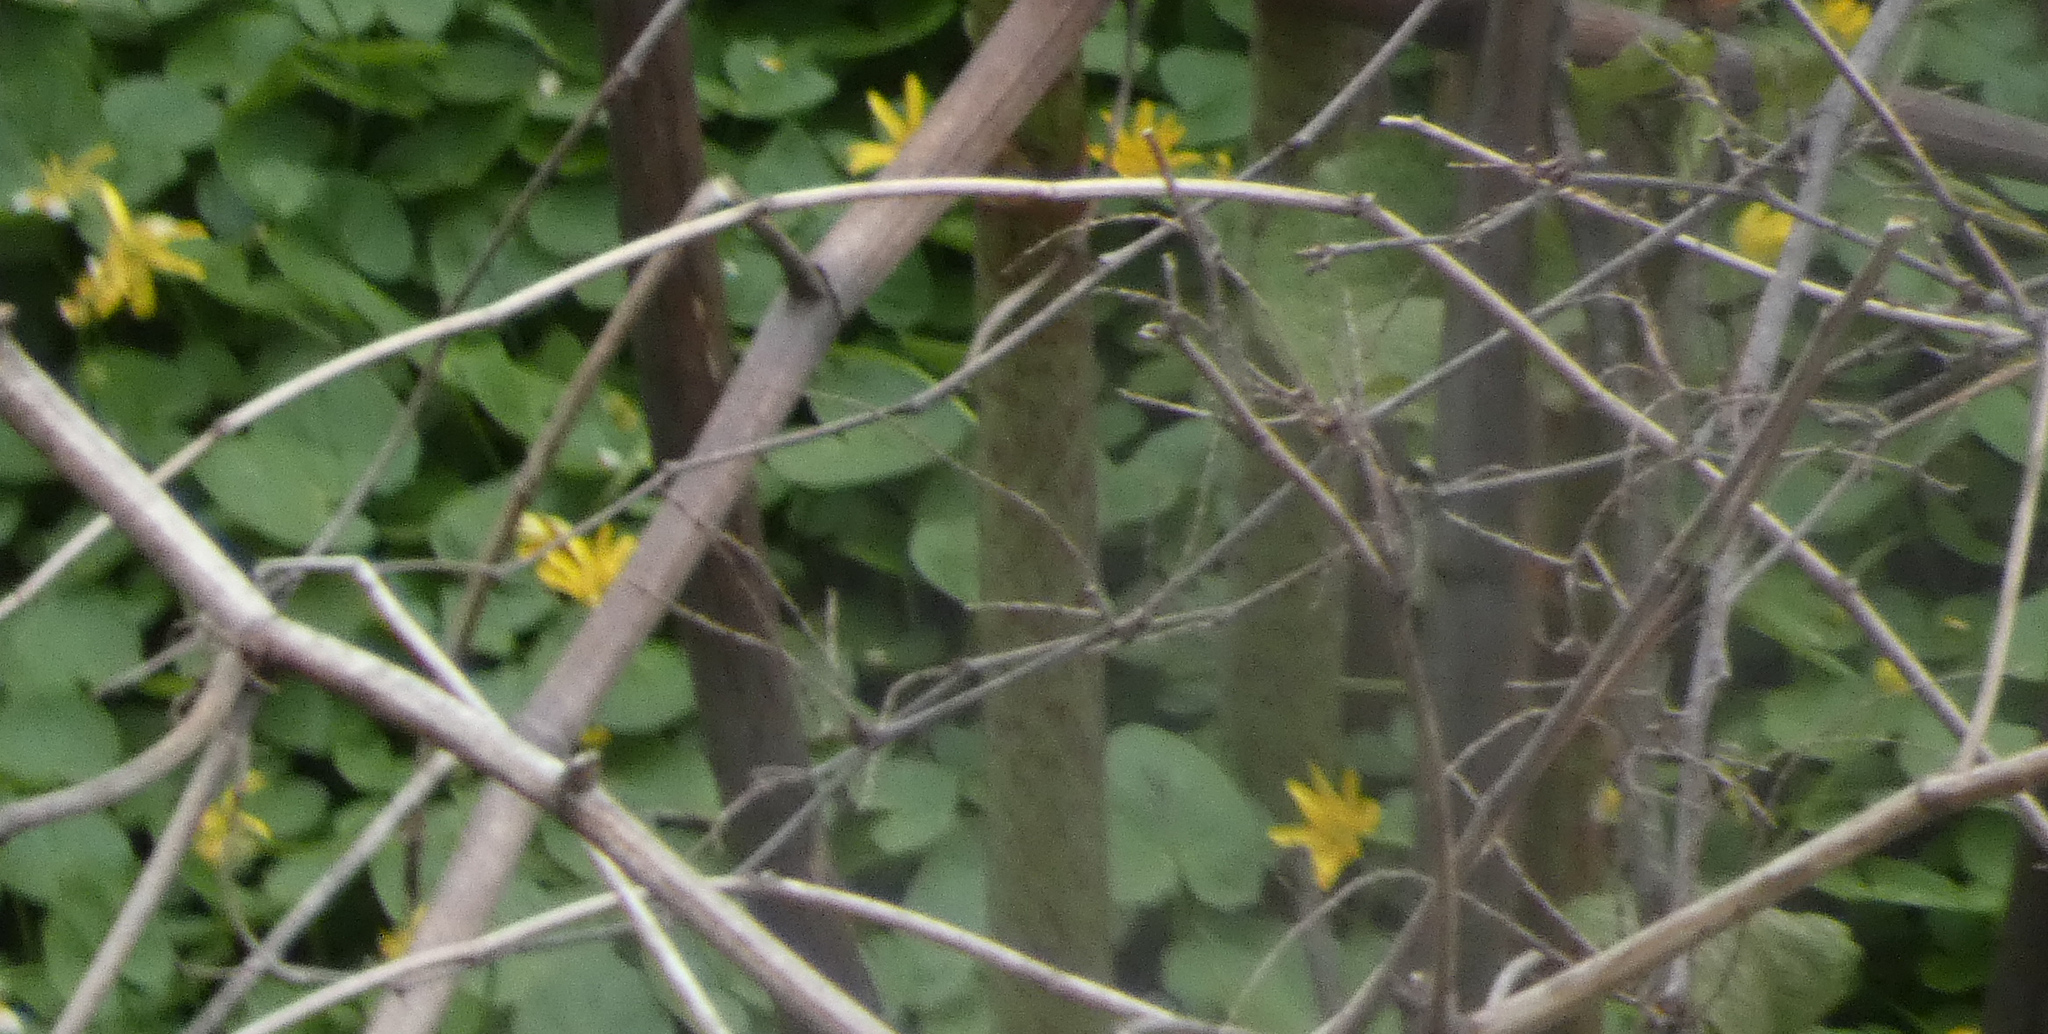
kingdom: Plantae
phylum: Tracheophyta
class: Magnoliopsida
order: Ranunculales
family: Ranunculaceae
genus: Ficaria
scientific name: Ficaria verna
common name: Lesser celandine
